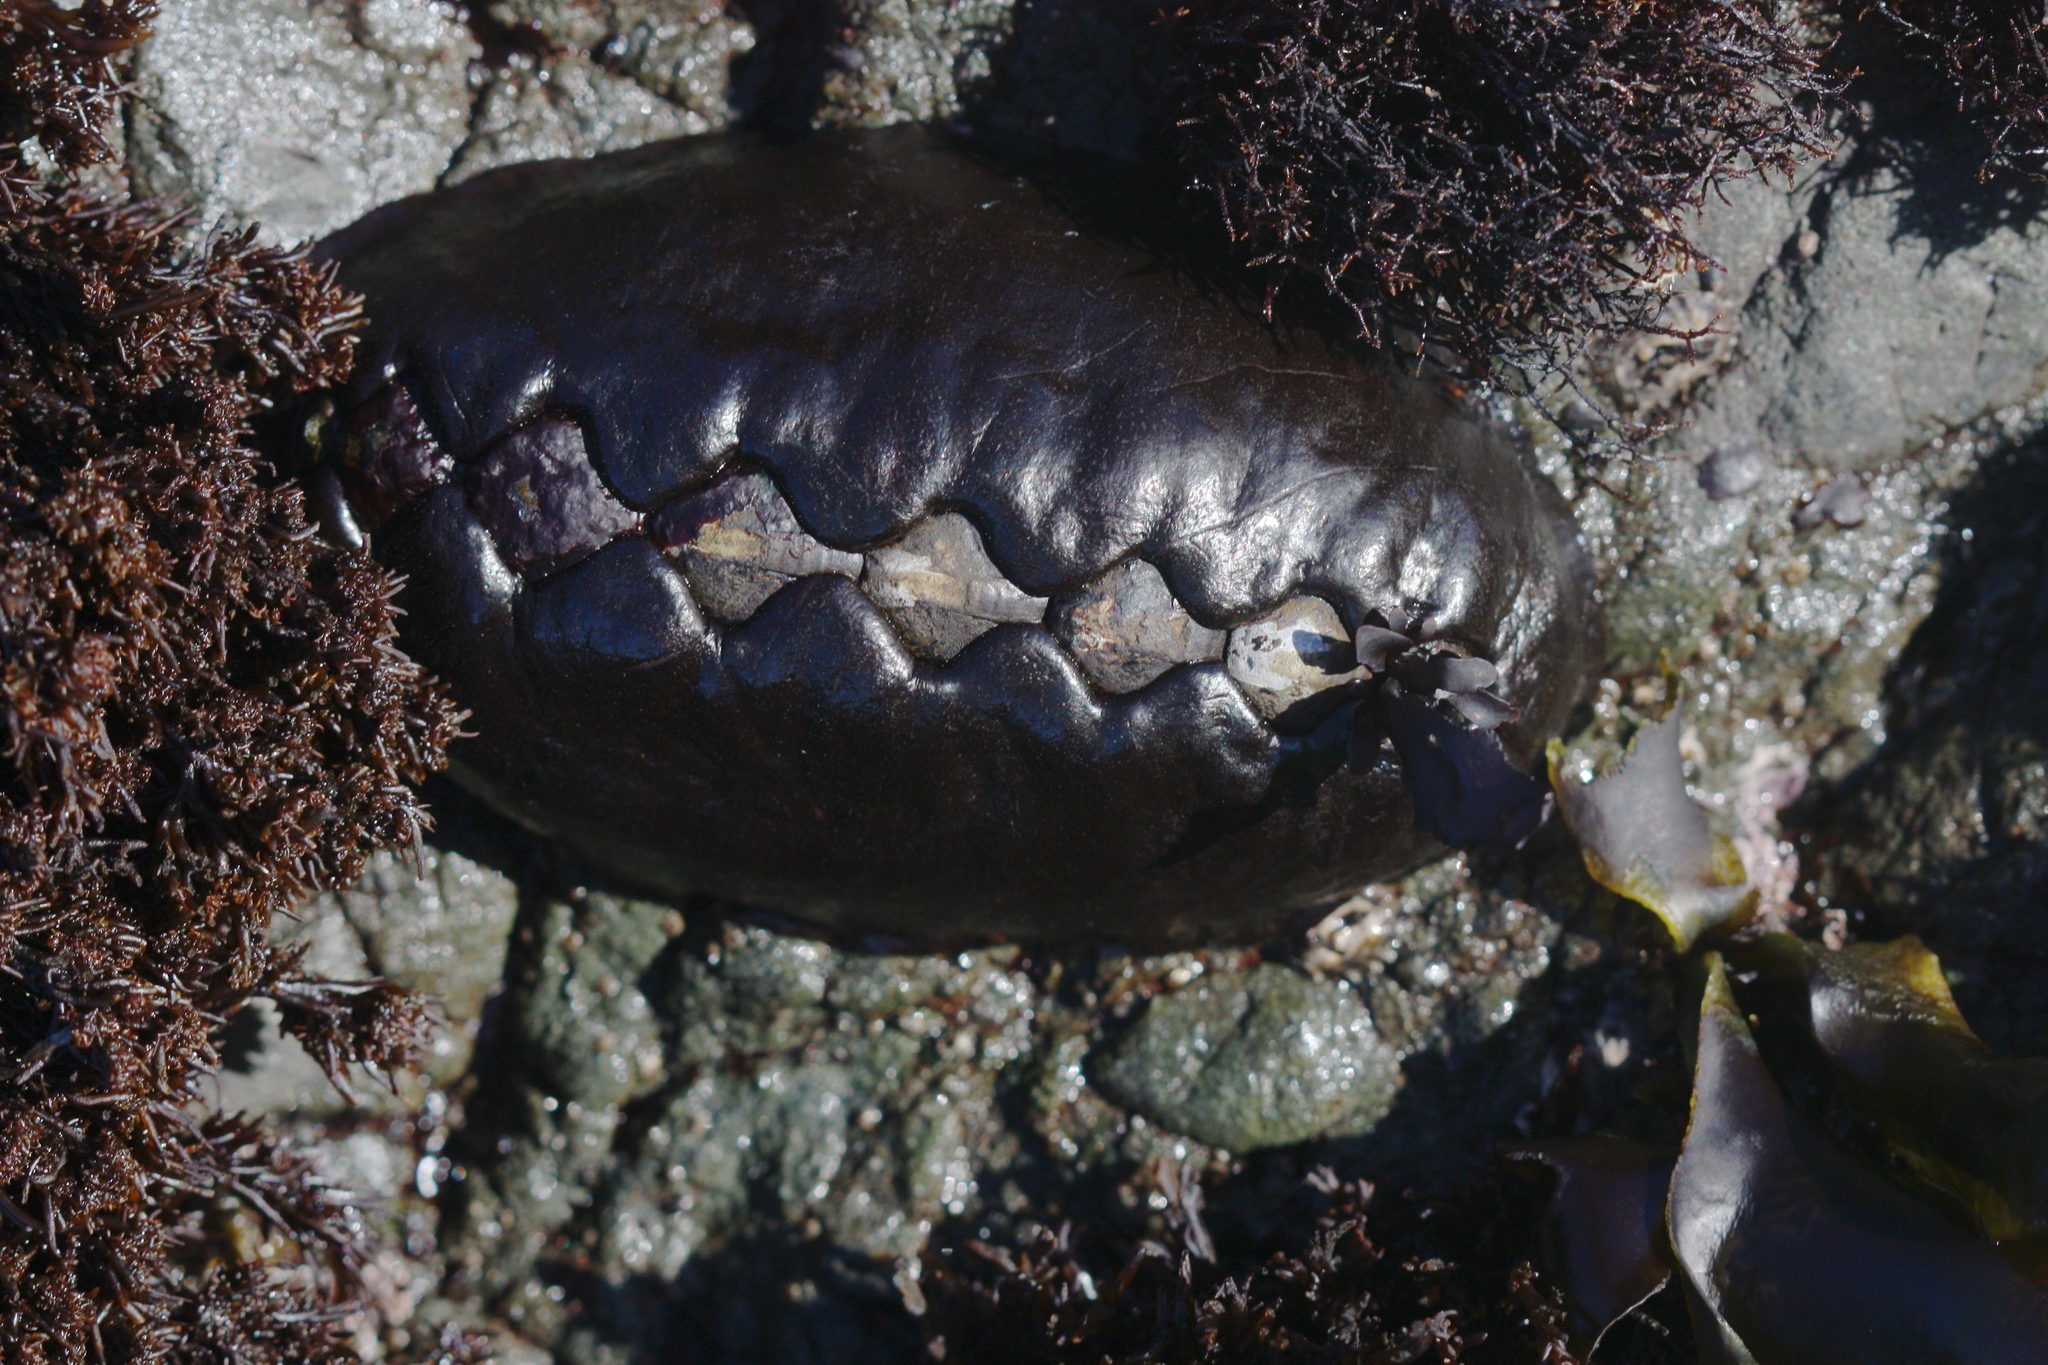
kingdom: Animalia
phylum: Mollusca
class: Polyplacophora
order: Chitonida
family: Mopaliidae
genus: Katharina
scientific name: Katharina tunicata
